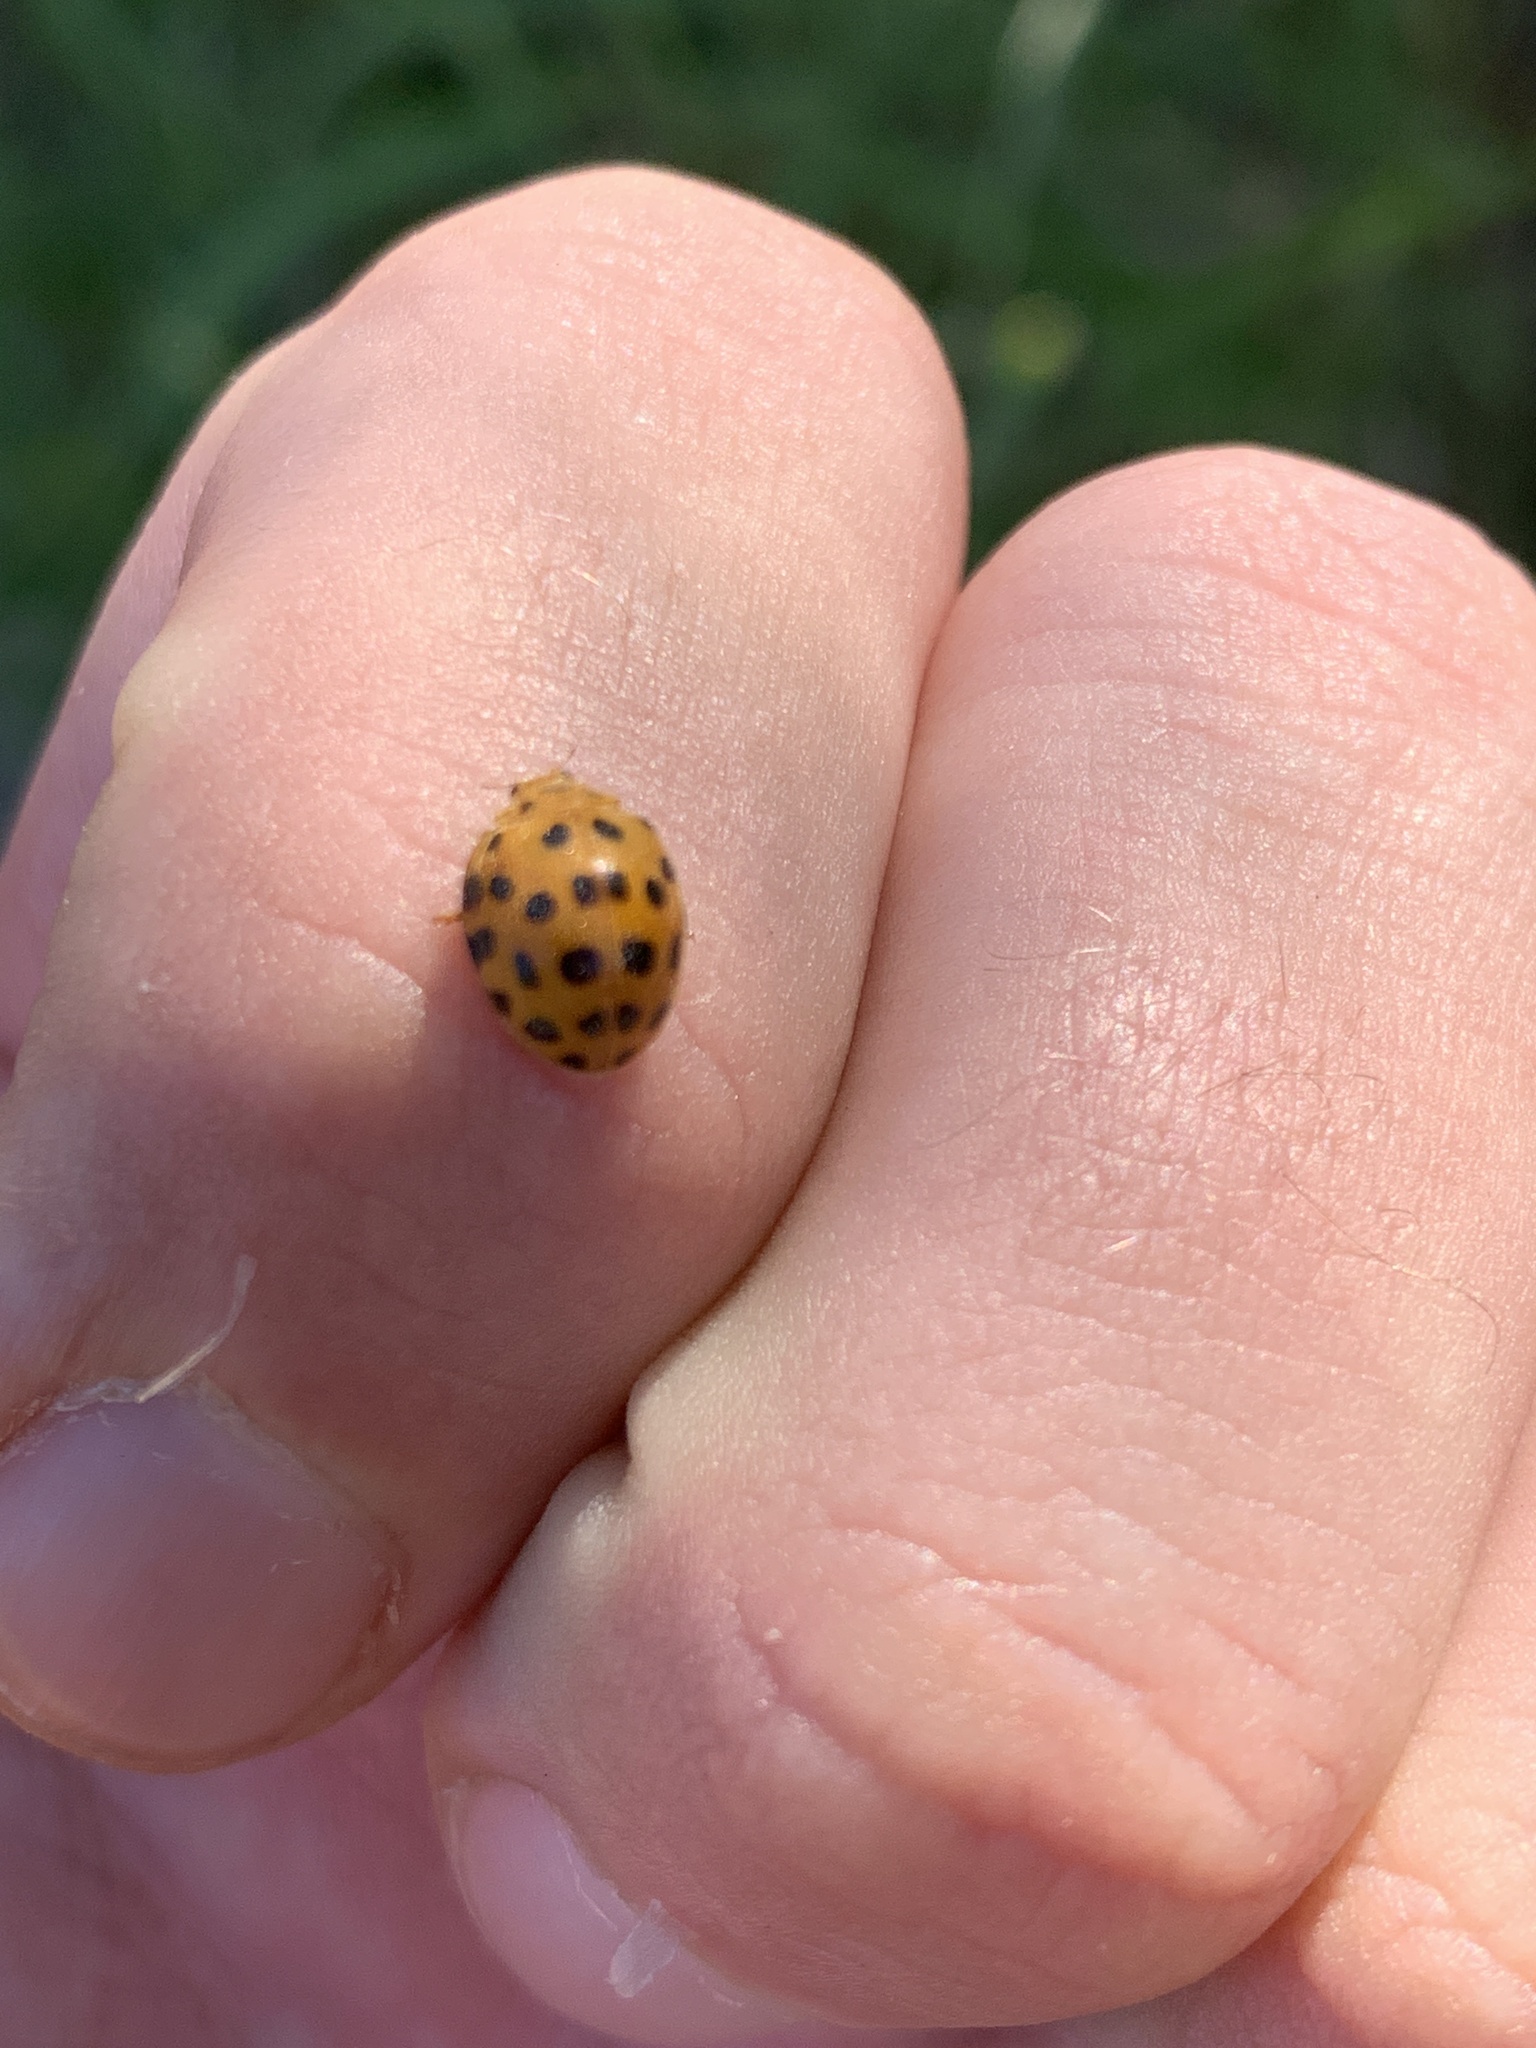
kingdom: Animalia
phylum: Arthropoda
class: Insecta
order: Coleoptera
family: Coccinellidae
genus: Henosepilachna
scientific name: Henosepilachna vigintioctopunctata
